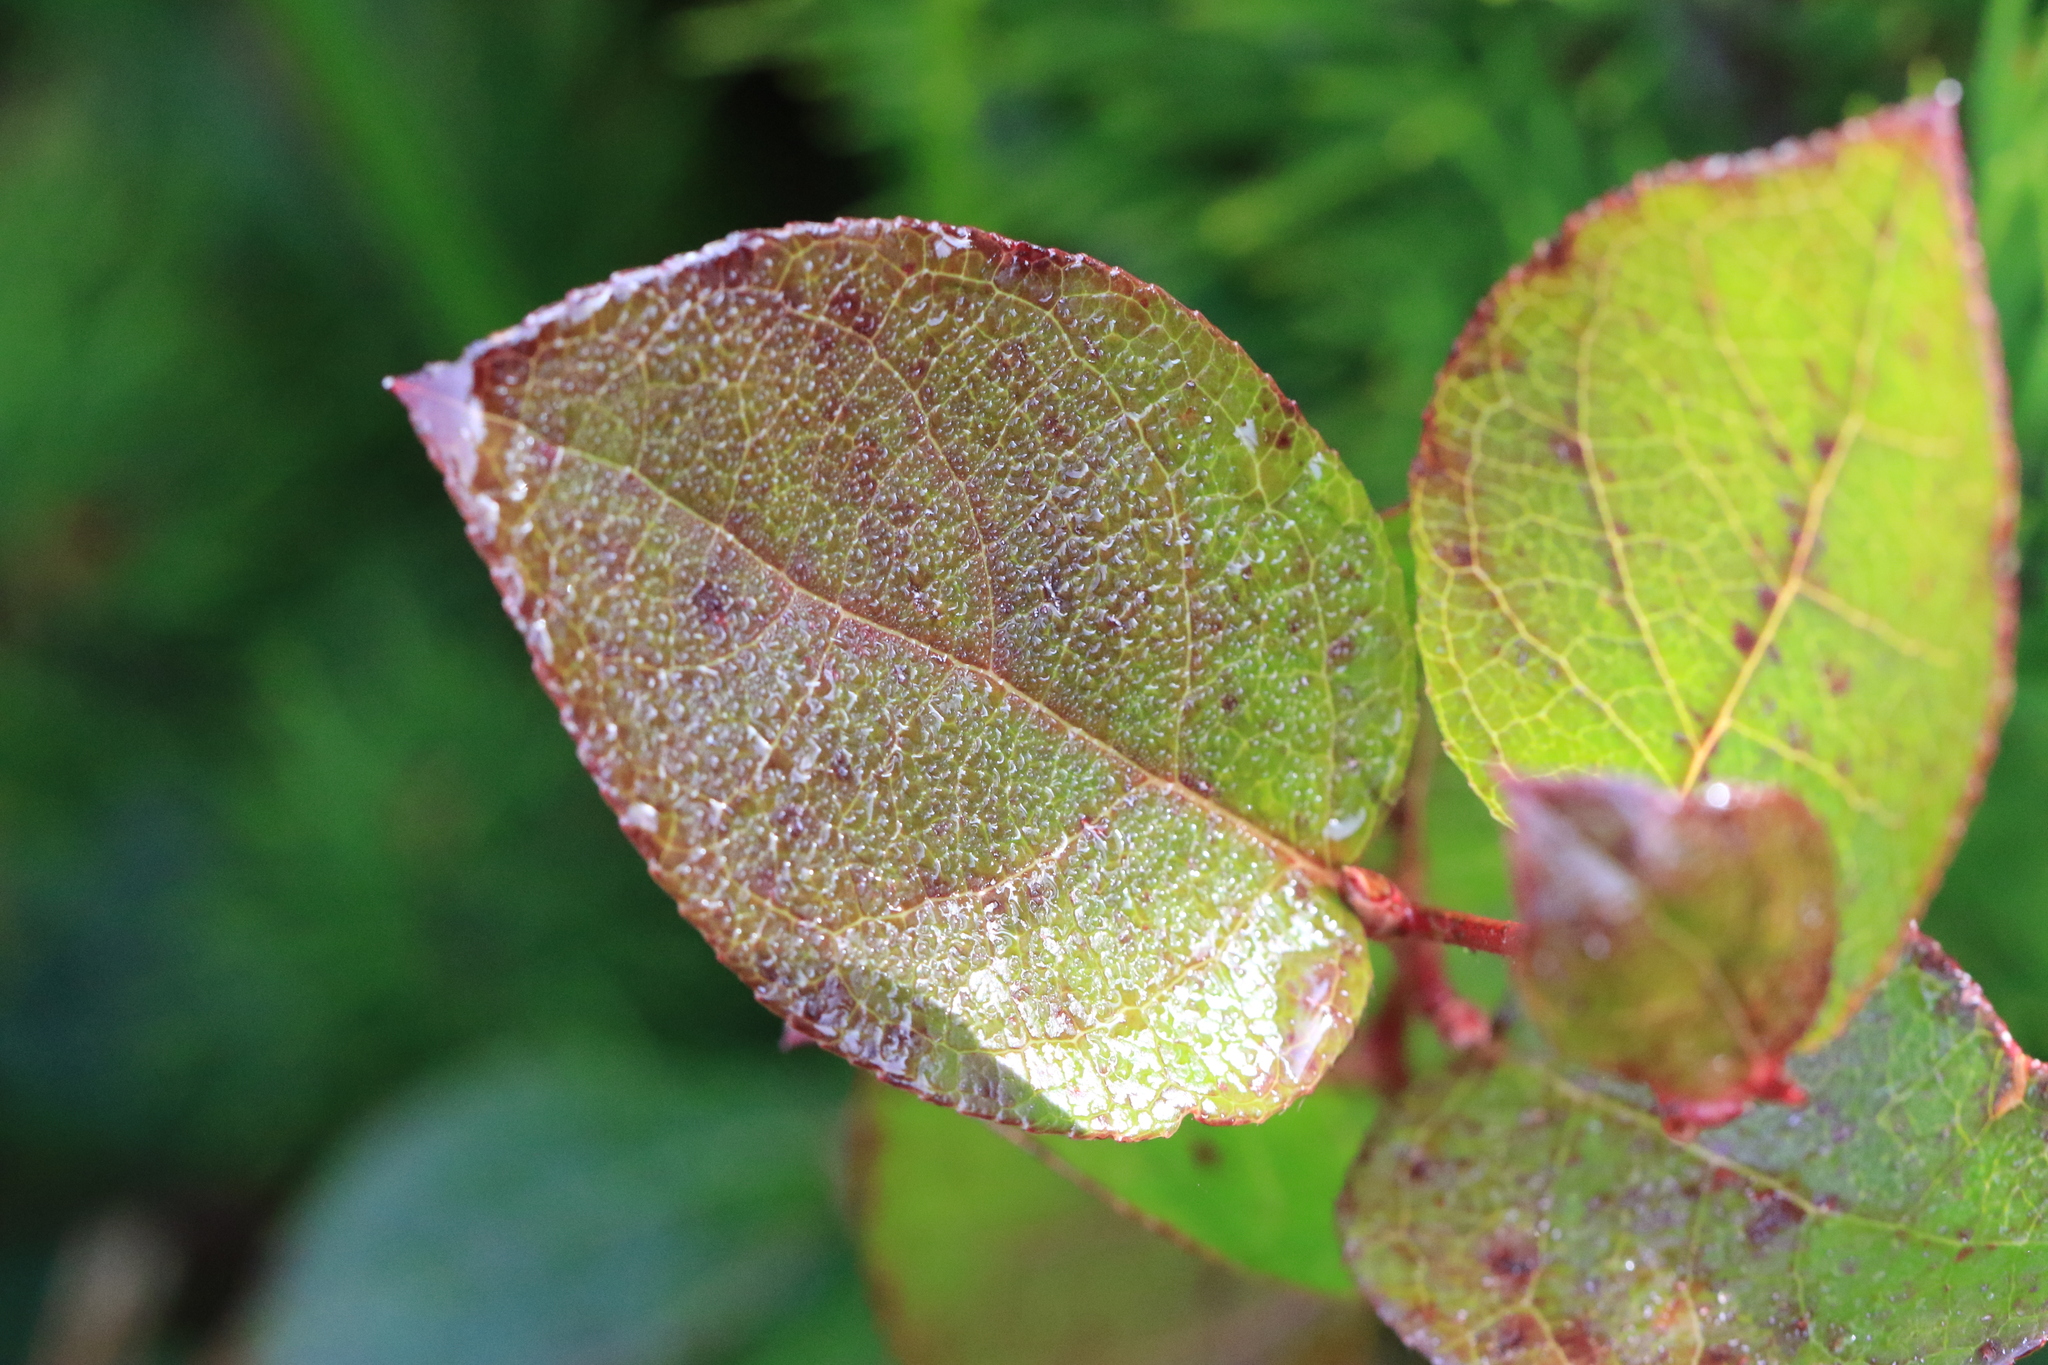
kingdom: Plantae
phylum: Tracheophyta
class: Magnoliopsida
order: Ericales
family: Ericaceae
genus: Gaultheria
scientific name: Gaultheria shallon
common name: Shallon
